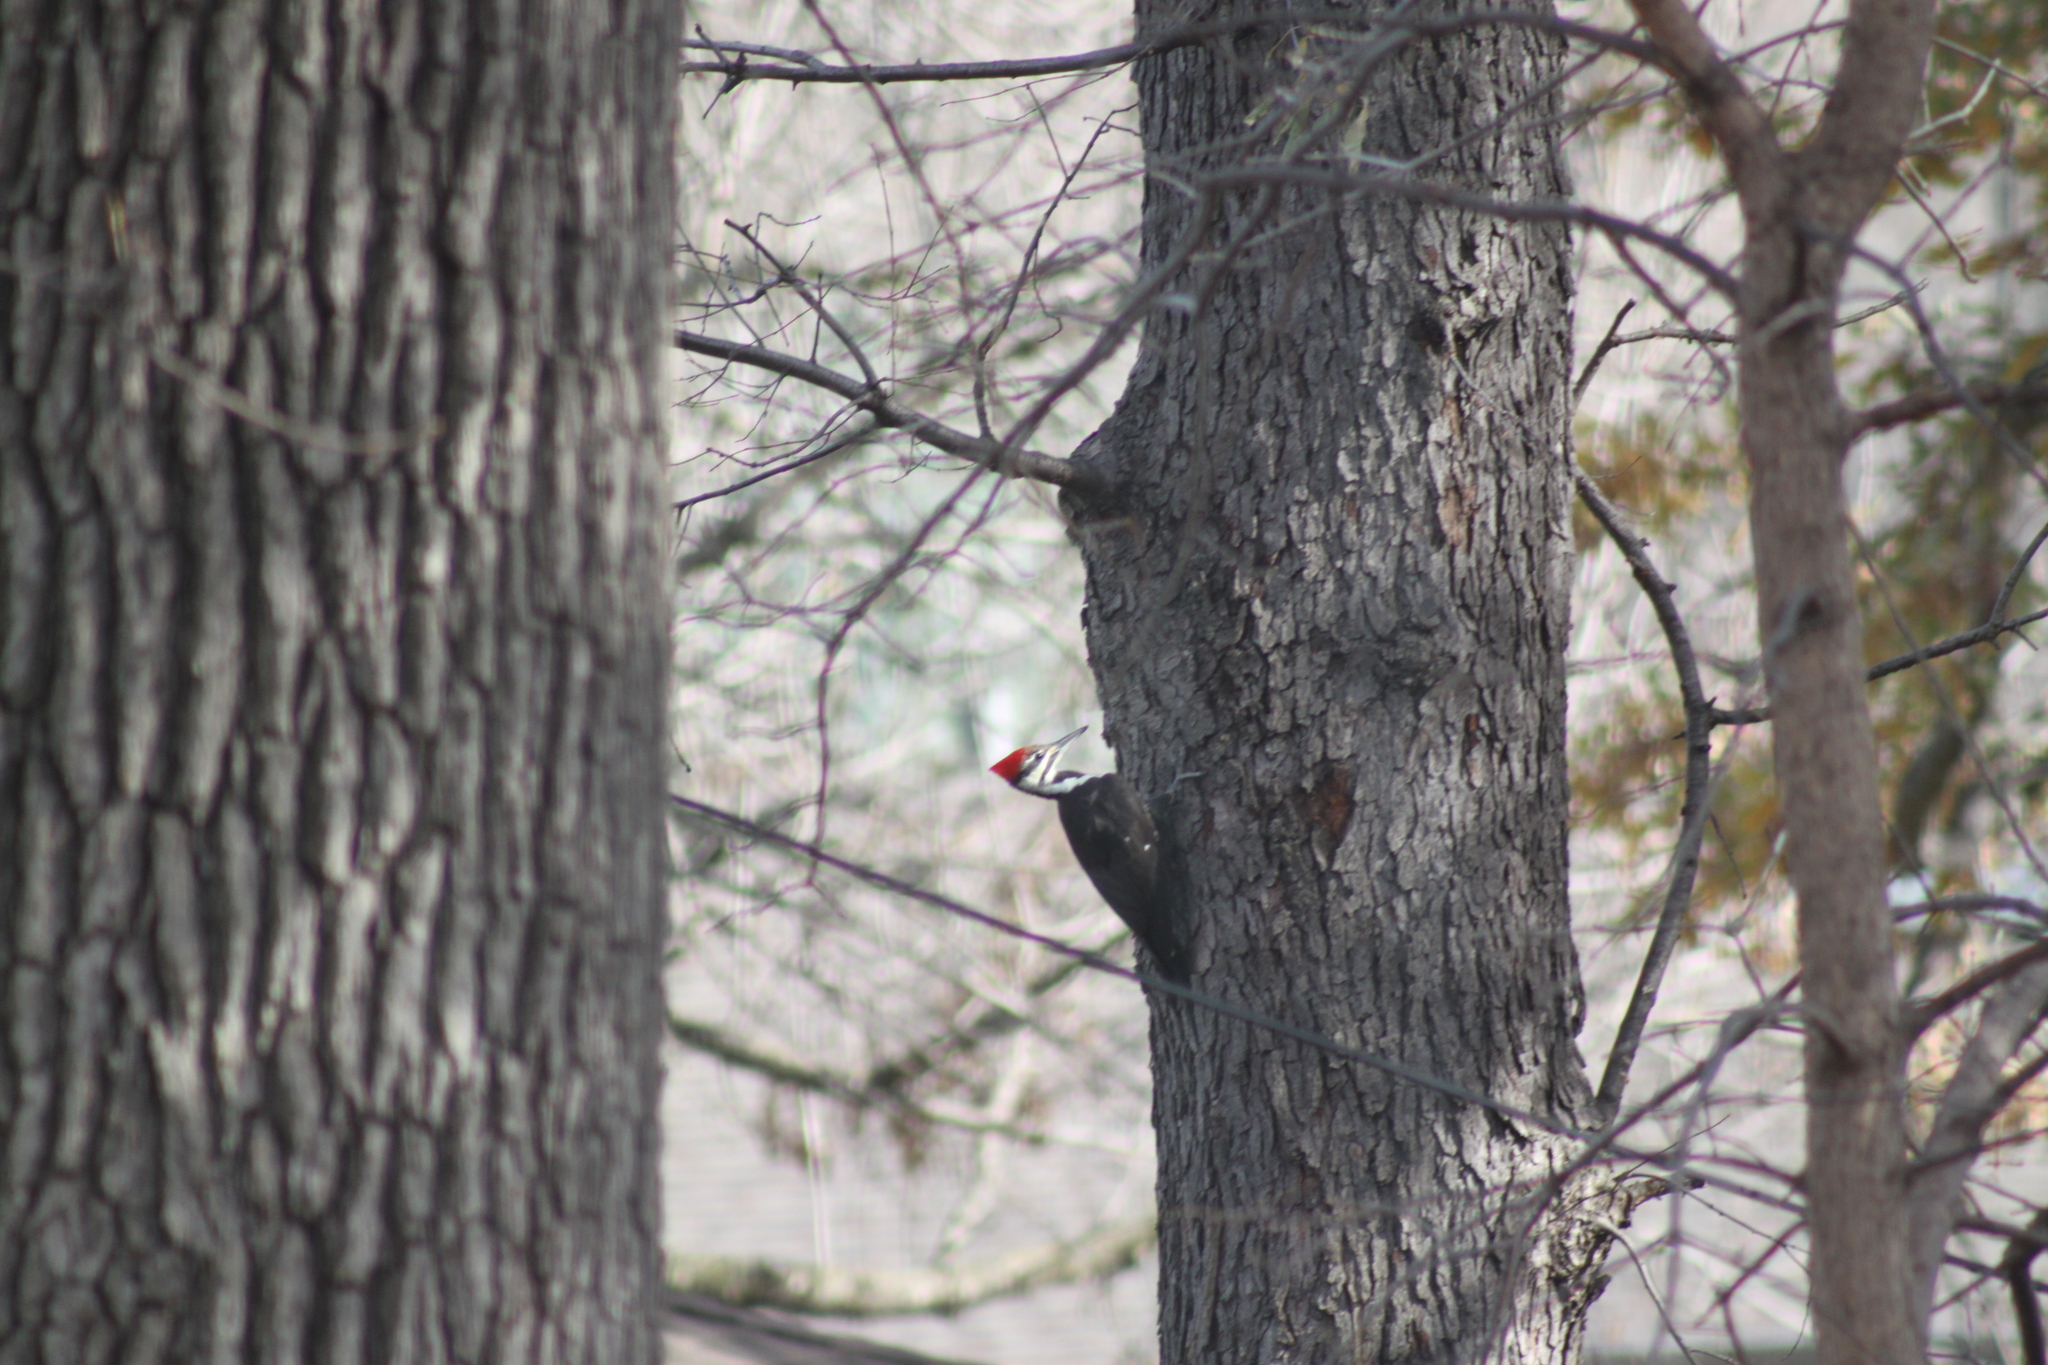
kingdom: Animalia
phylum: Chordata
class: Aves
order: Piciformes
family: Picidae
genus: Dryocopus
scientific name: Dryocopus pileatus
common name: Pileated woodpecker
